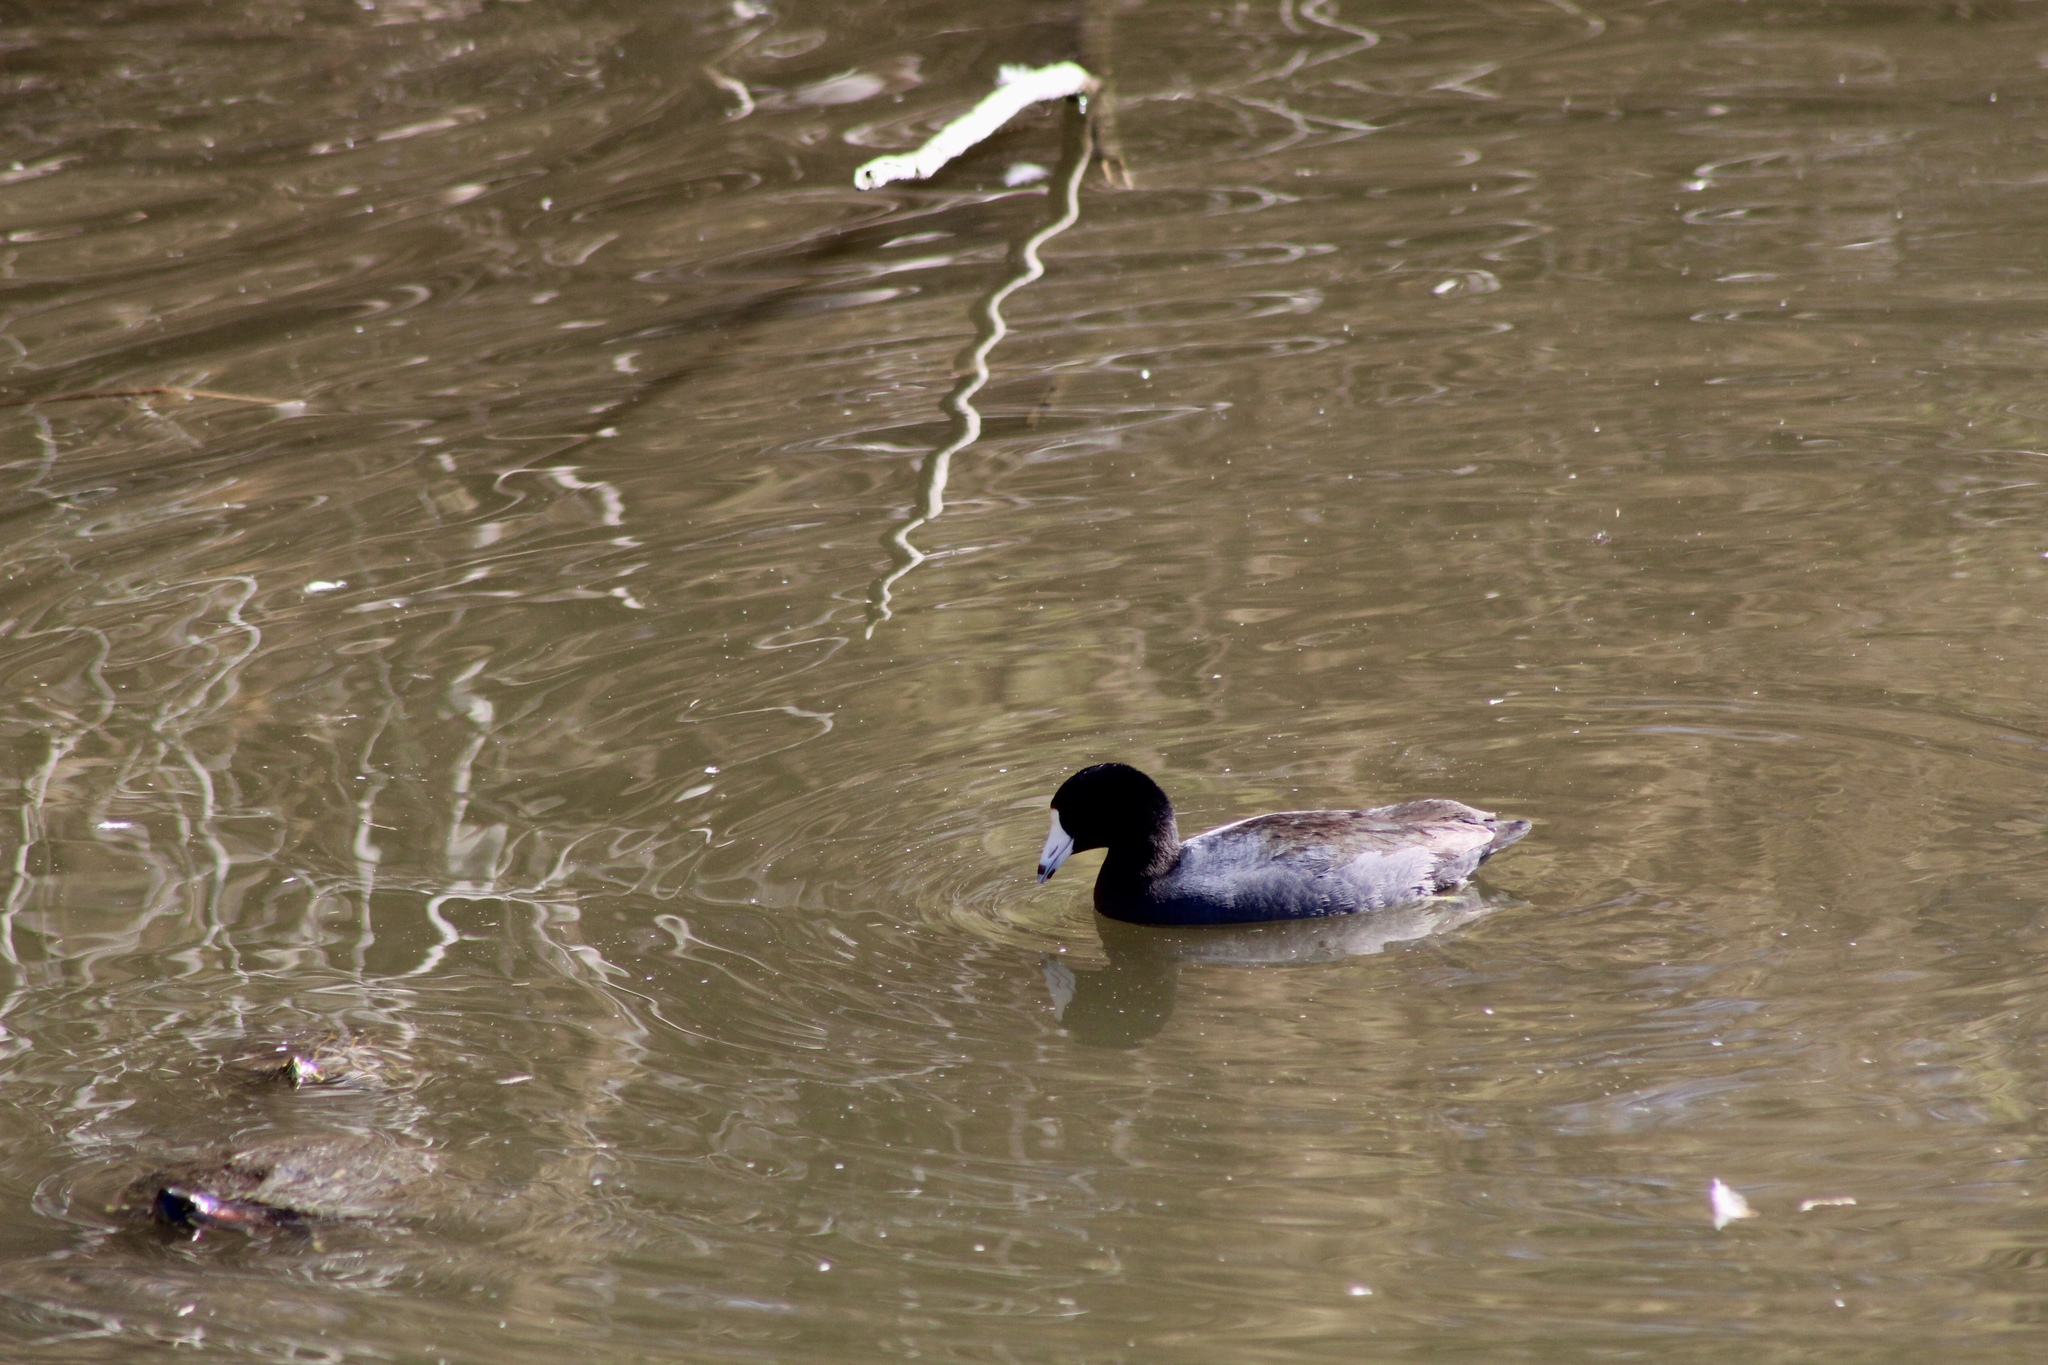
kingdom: Animalia
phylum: Chordata
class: Aves
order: Gruiformes
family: Rallidae
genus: Fulica
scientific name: Fulica americana
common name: American coot
